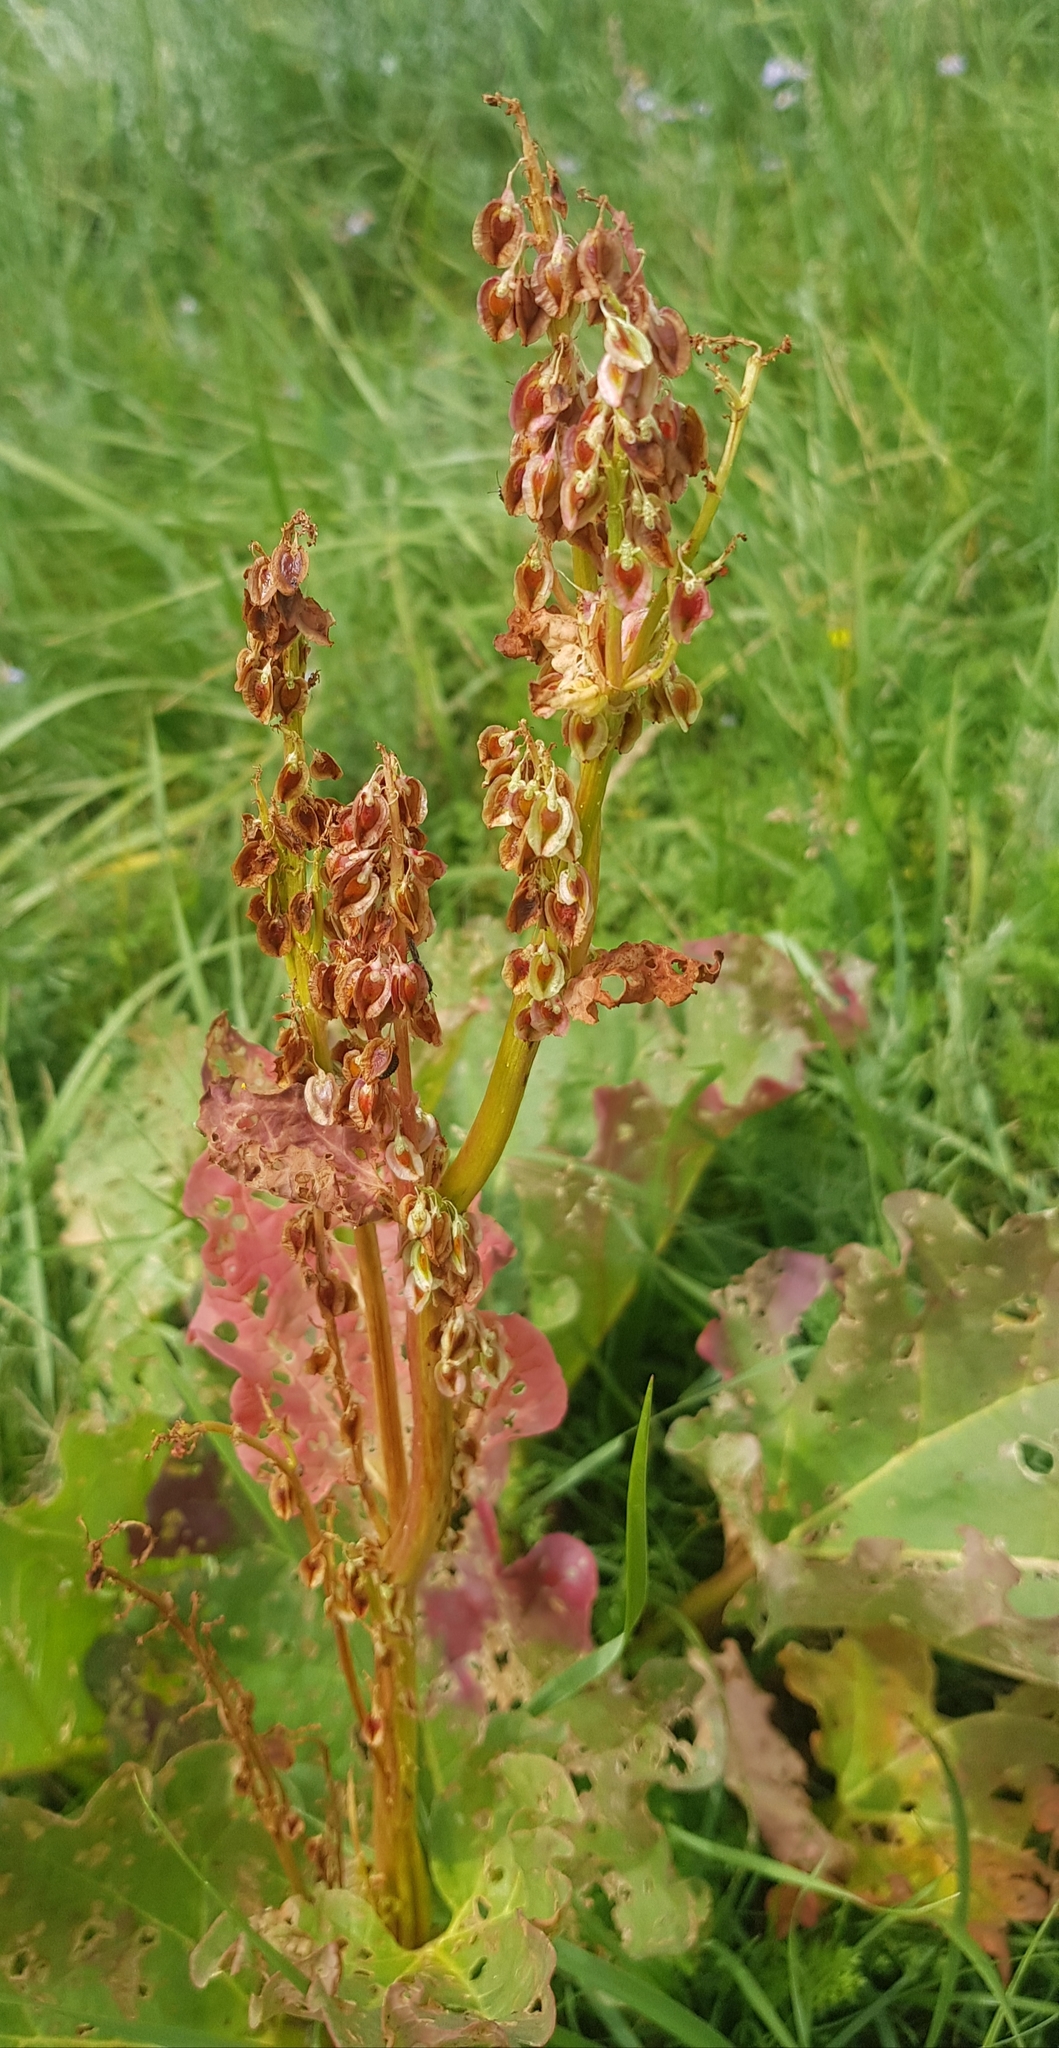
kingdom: Plantae
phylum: Tracheophyta
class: Magnoliopsida
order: Caryophyllales
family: Polygonaceae
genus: Rheum
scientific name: Rheum rhabarbarum
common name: Garden rhubarb
